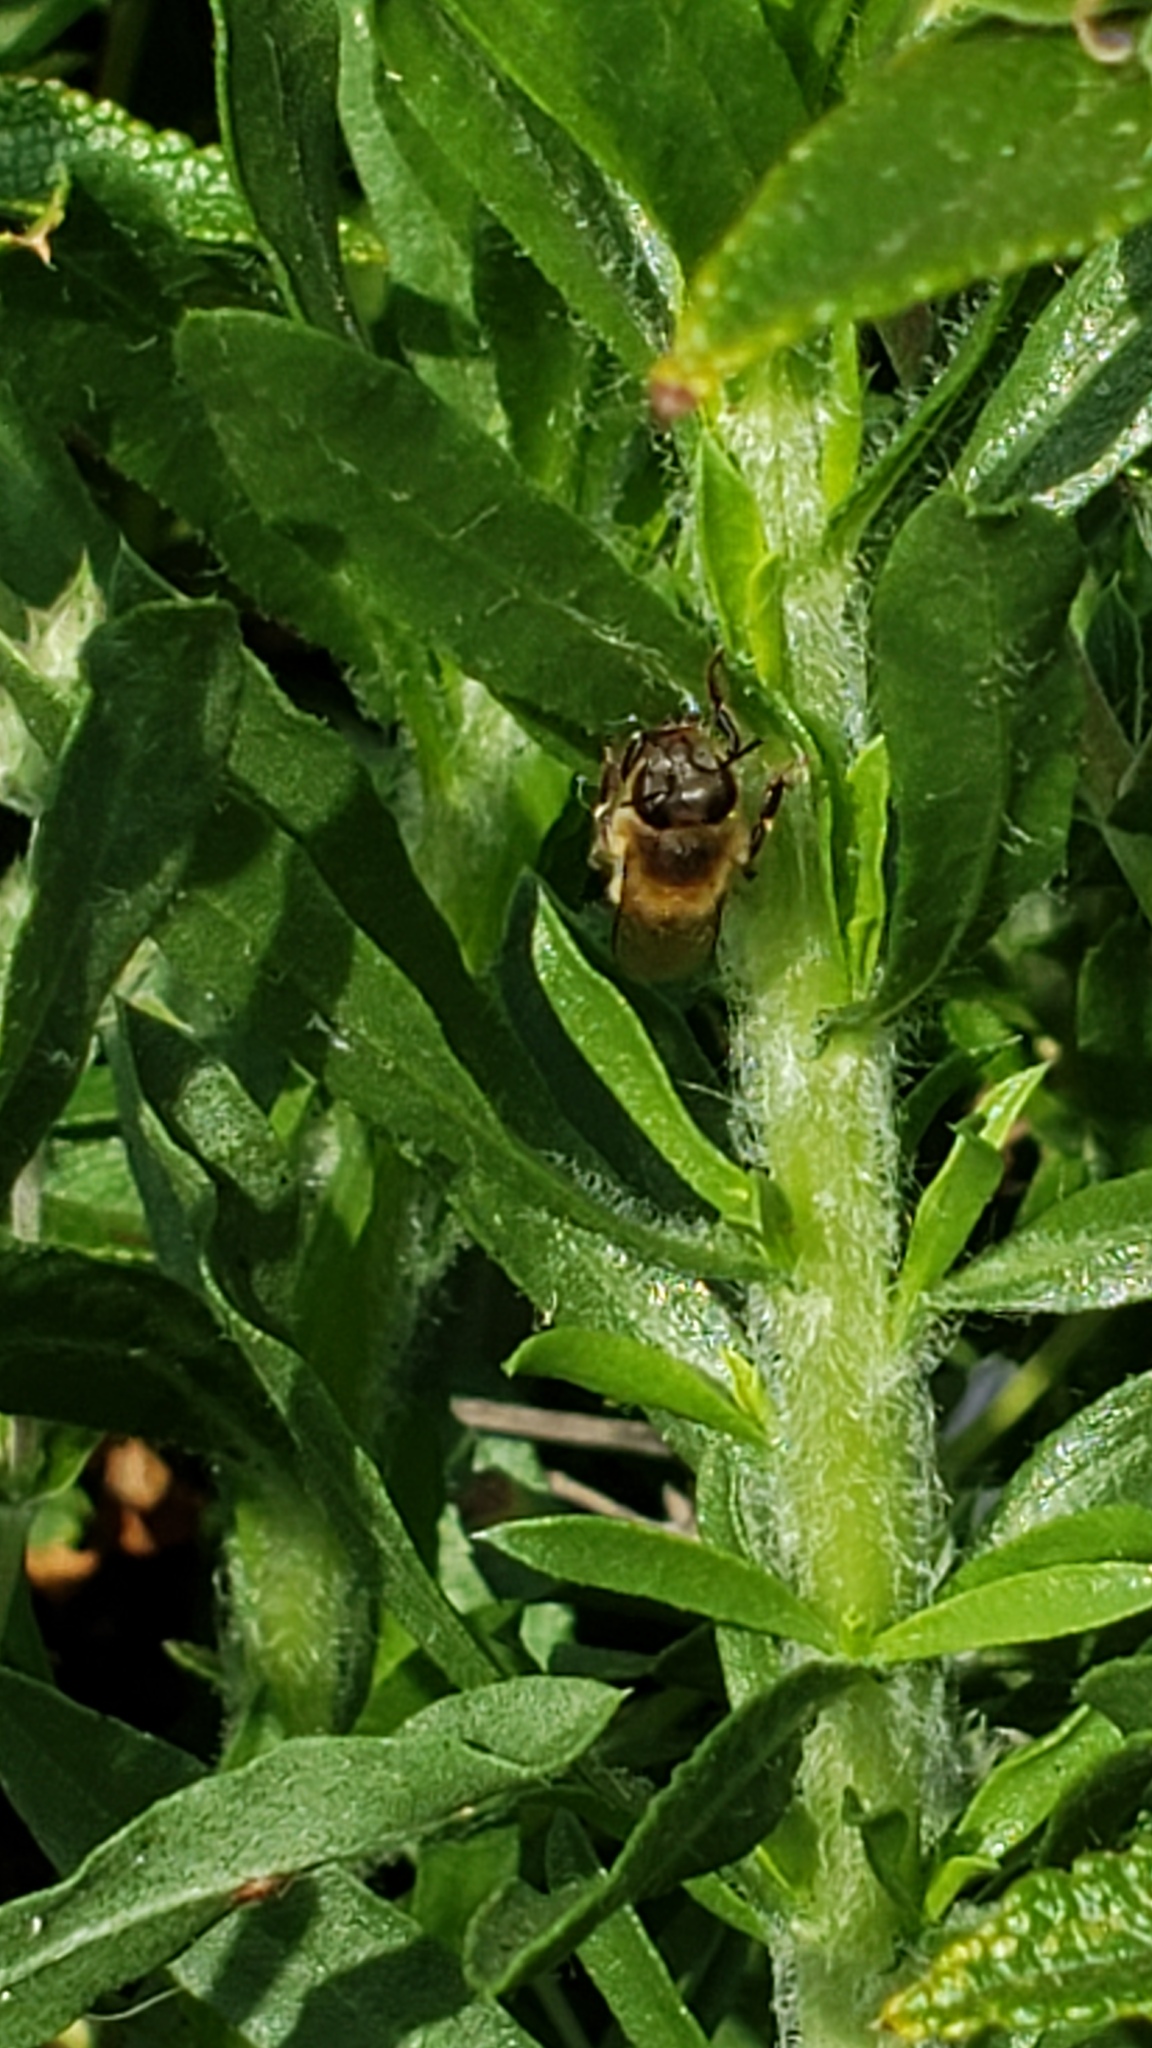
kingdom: Animalia
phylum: Arthropoda
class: Insecta
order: Hymenoptera
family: Apidae
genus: Apis
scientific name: Apis mellifera
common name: Honey bee
